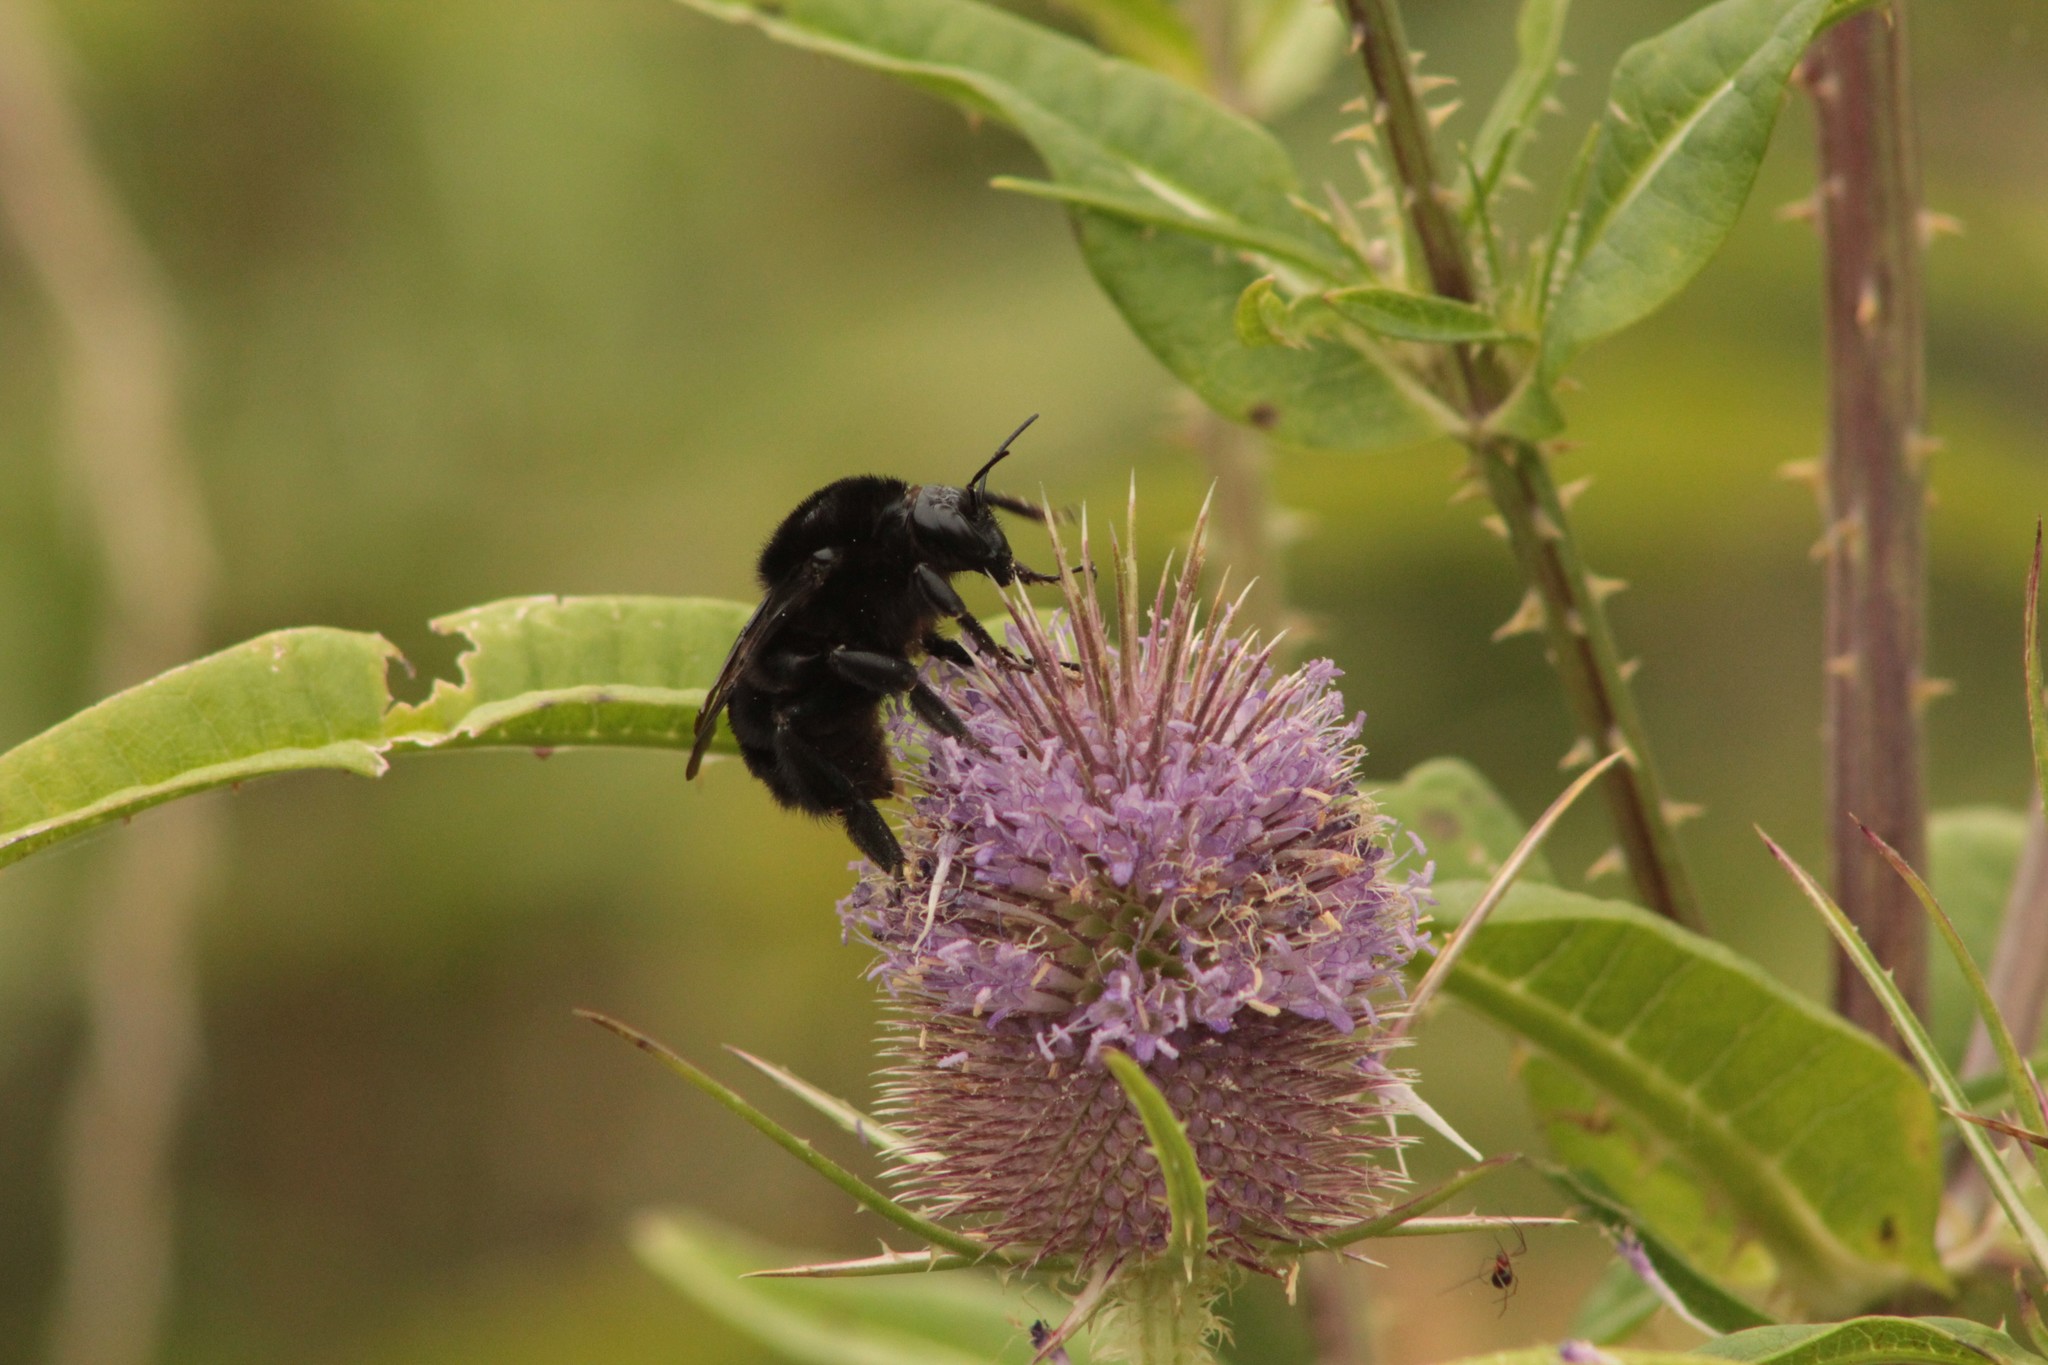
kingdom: Animalia
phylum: Arthropoda
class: Insecta
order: Hymenoptera
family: Apidae
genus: Bombus
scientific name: Bombus pauloensis
